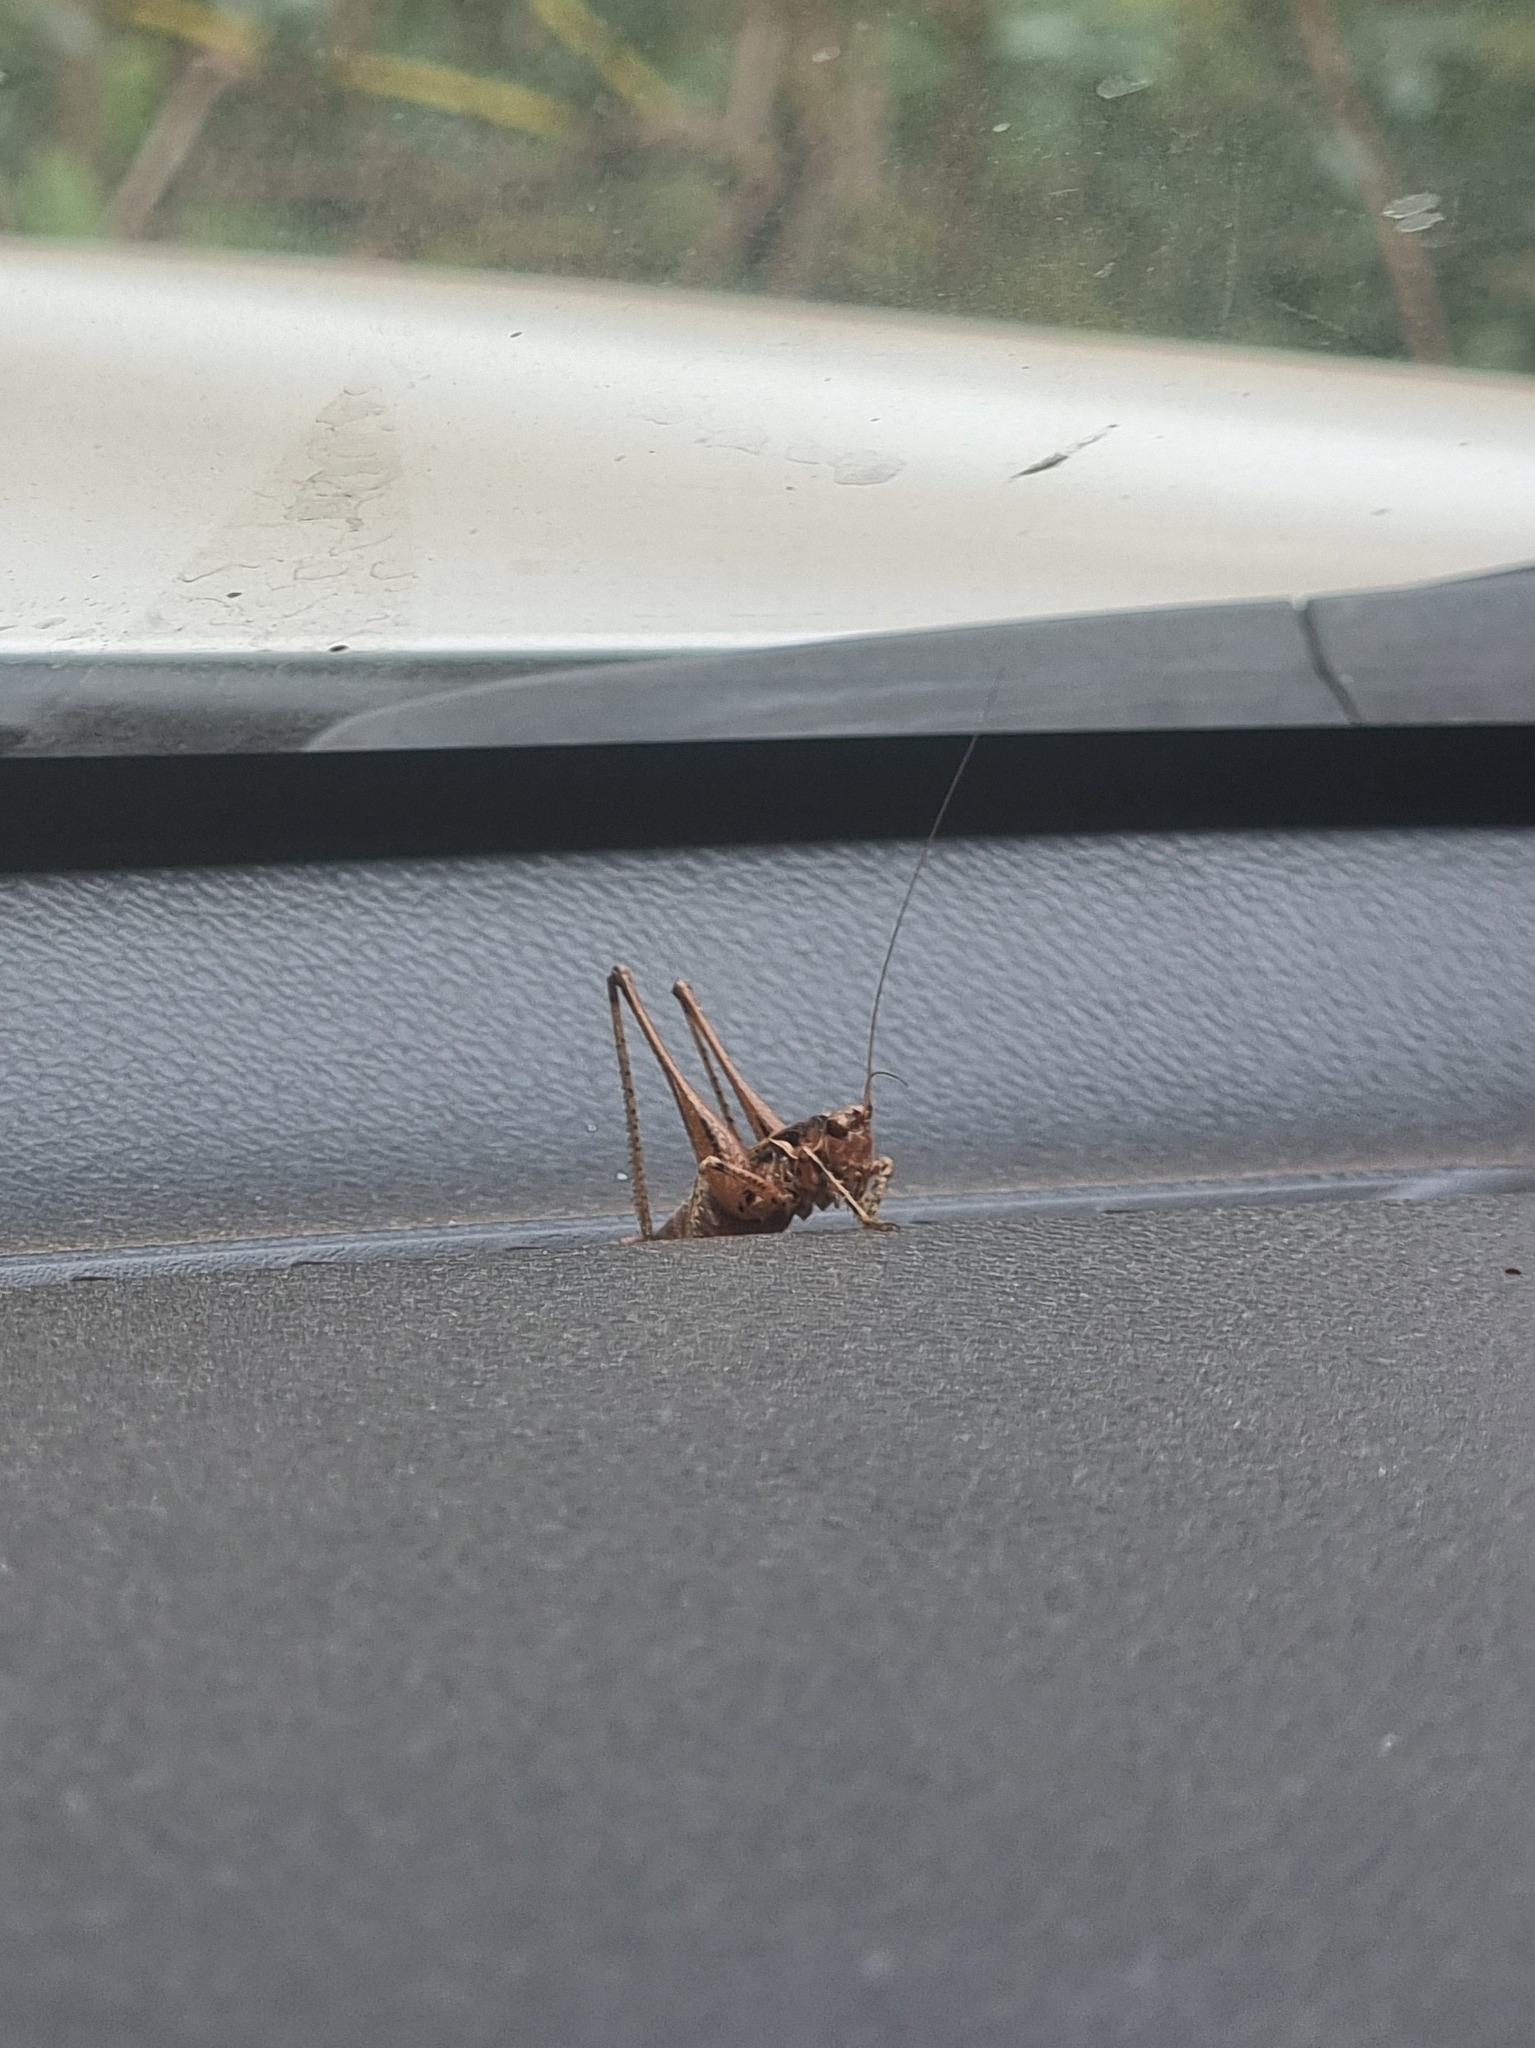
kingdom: Animalia
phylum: Arthropoda
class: Insecta
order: Orthoptera
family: Tettigoniidae
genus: Antaxius
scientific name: Antaxius spinibrachius
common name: Spiny-legged bush-cricket
